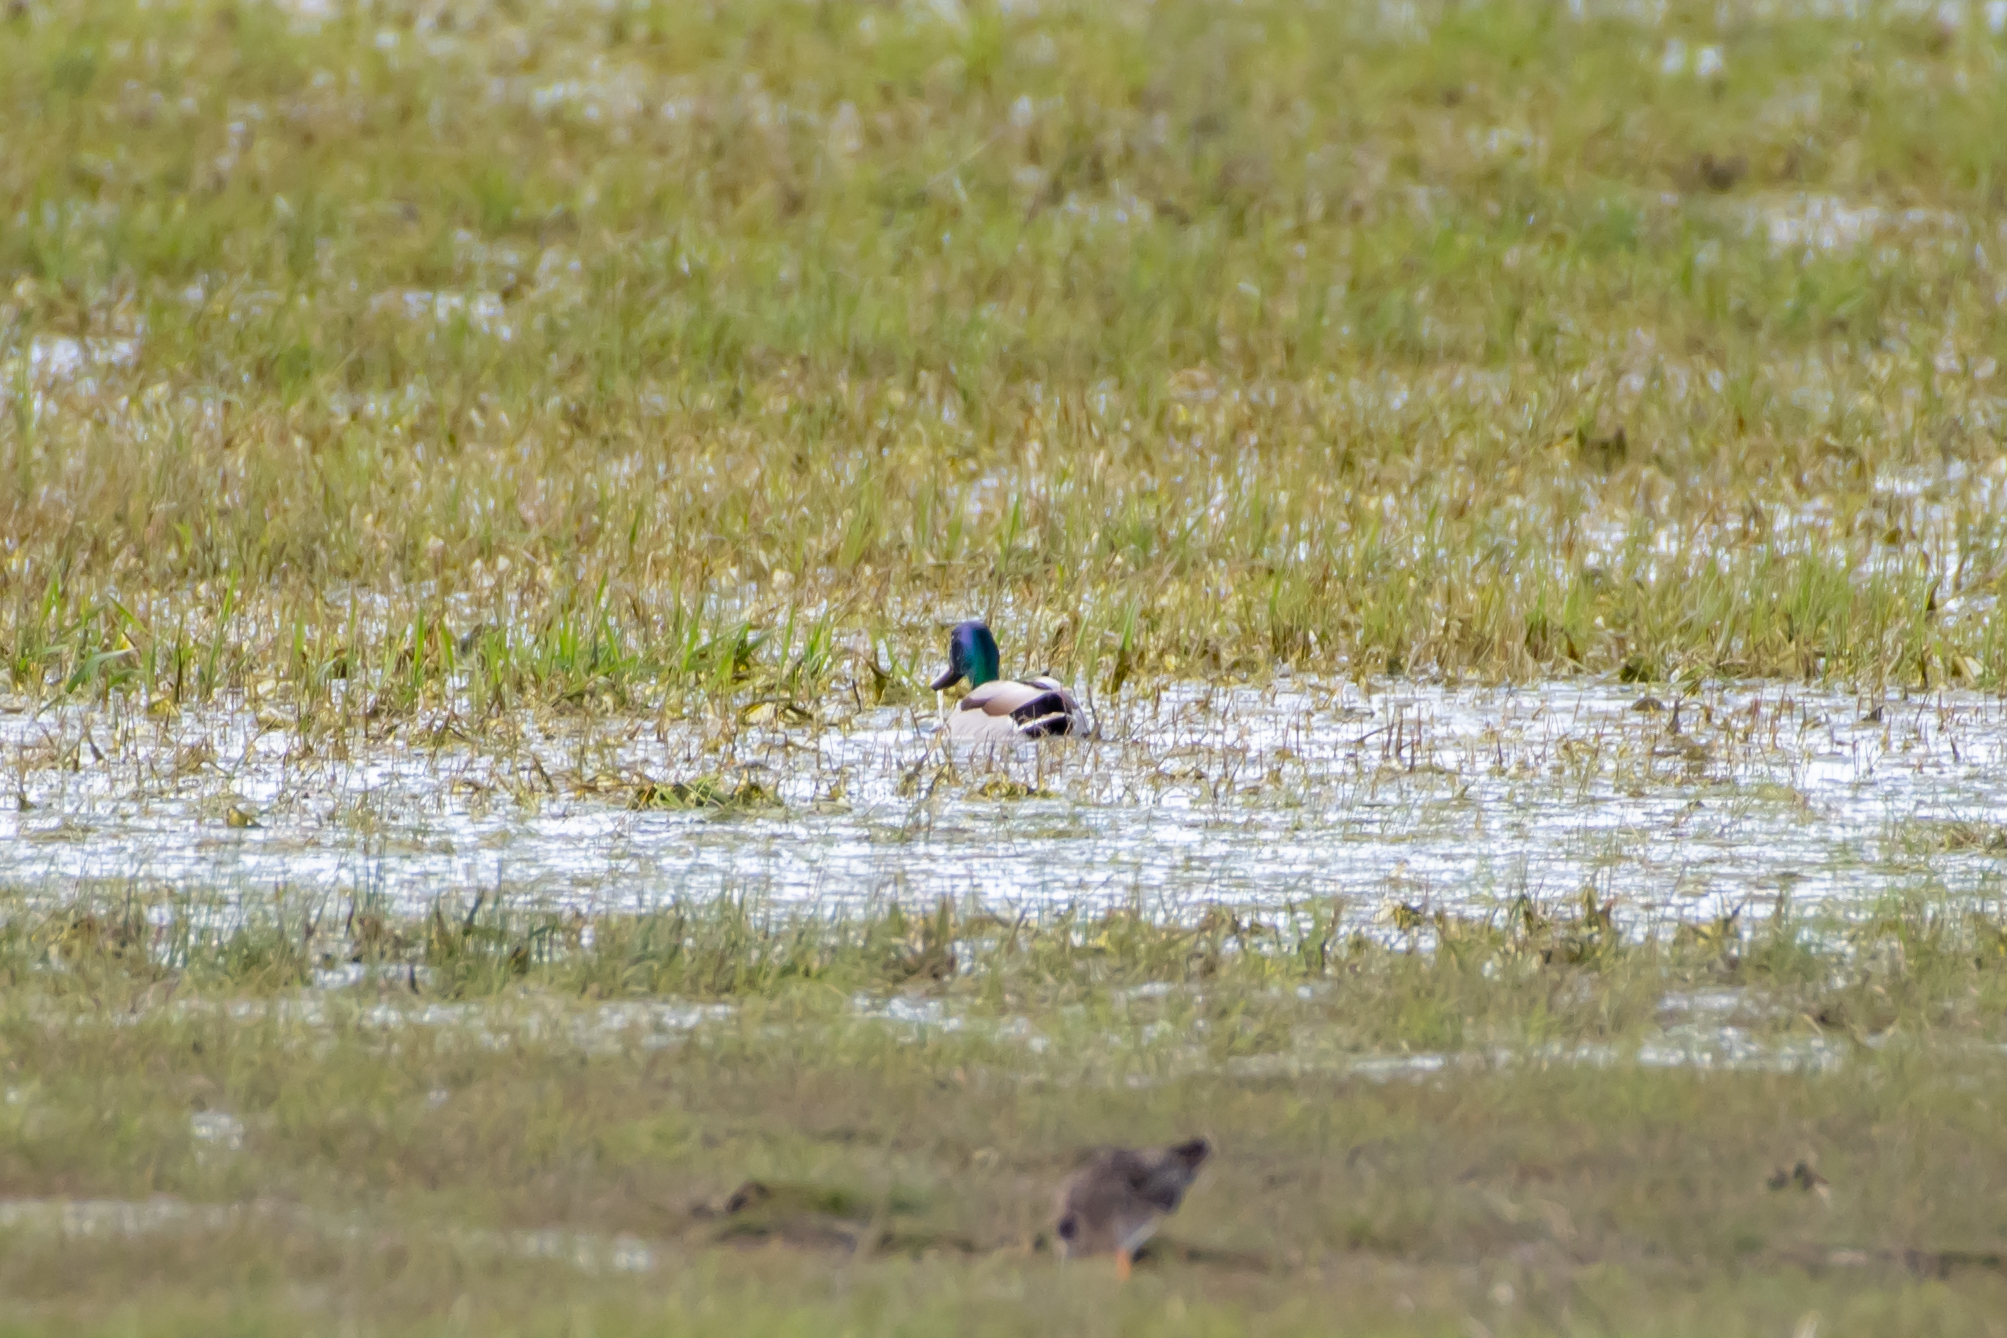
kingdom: Animalia
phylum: Chordata
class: Aves
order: Anseriformes
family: Anatidae
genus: Anas
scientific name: Anas platyrhynchos
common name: Mallard
